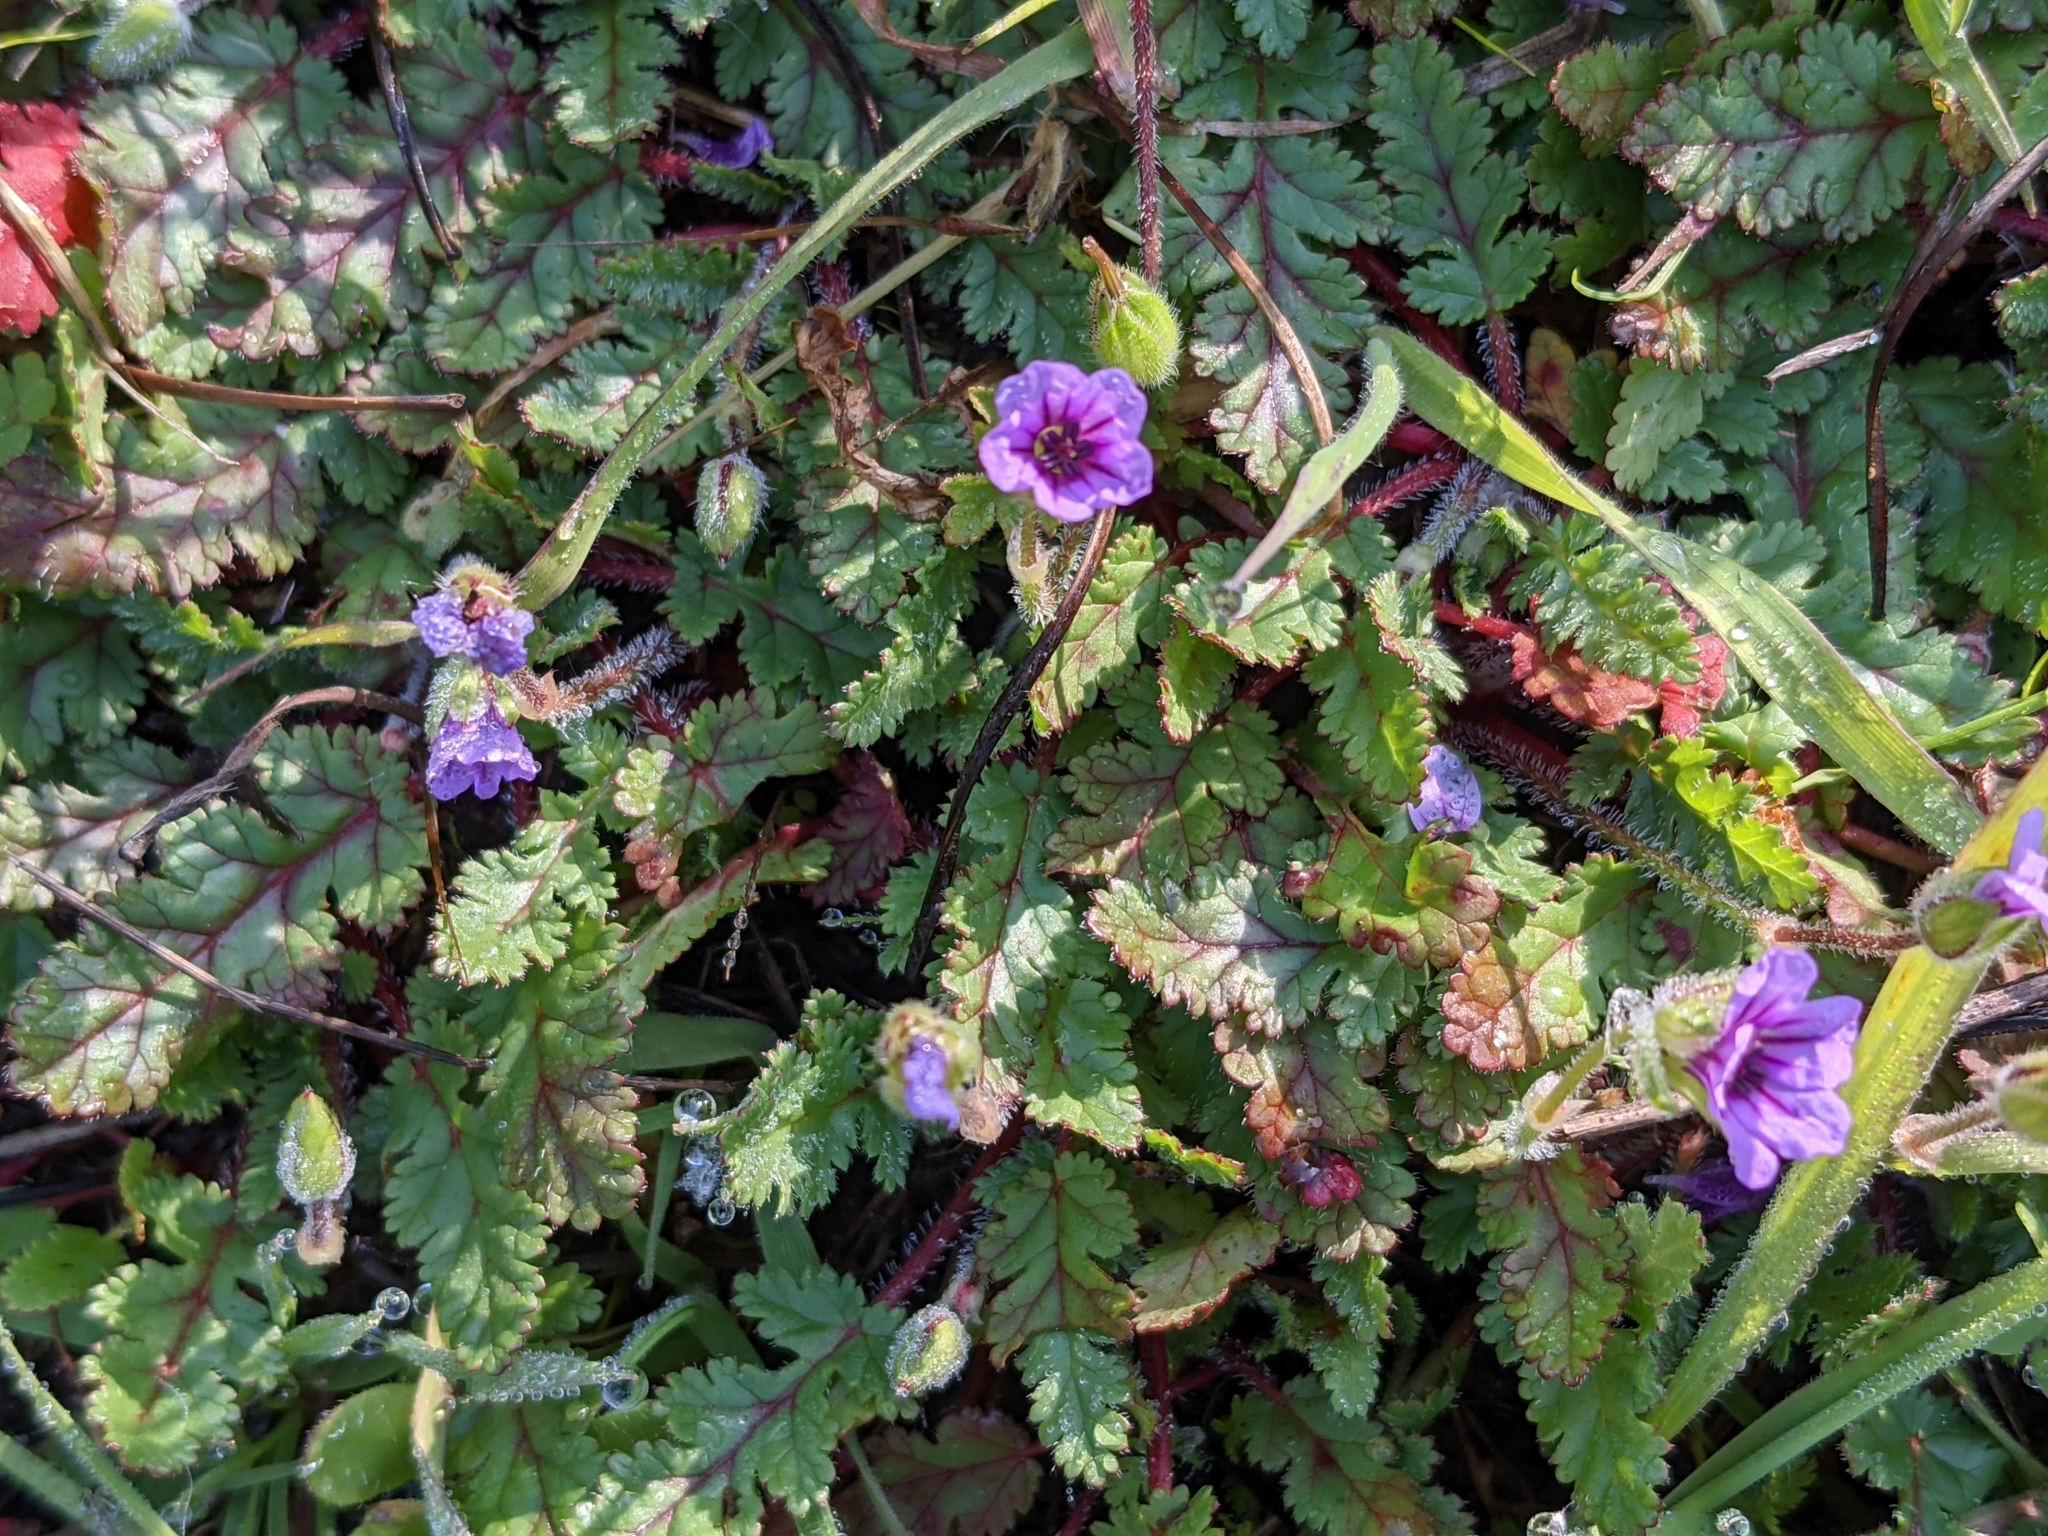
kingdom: Plantae
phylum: Tracheophyta
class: Magnoliopsida
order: Geraniales
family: Geraniaceae
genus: Erodium
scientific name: Erodium botrys
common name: Mediterranean stork's-bill
